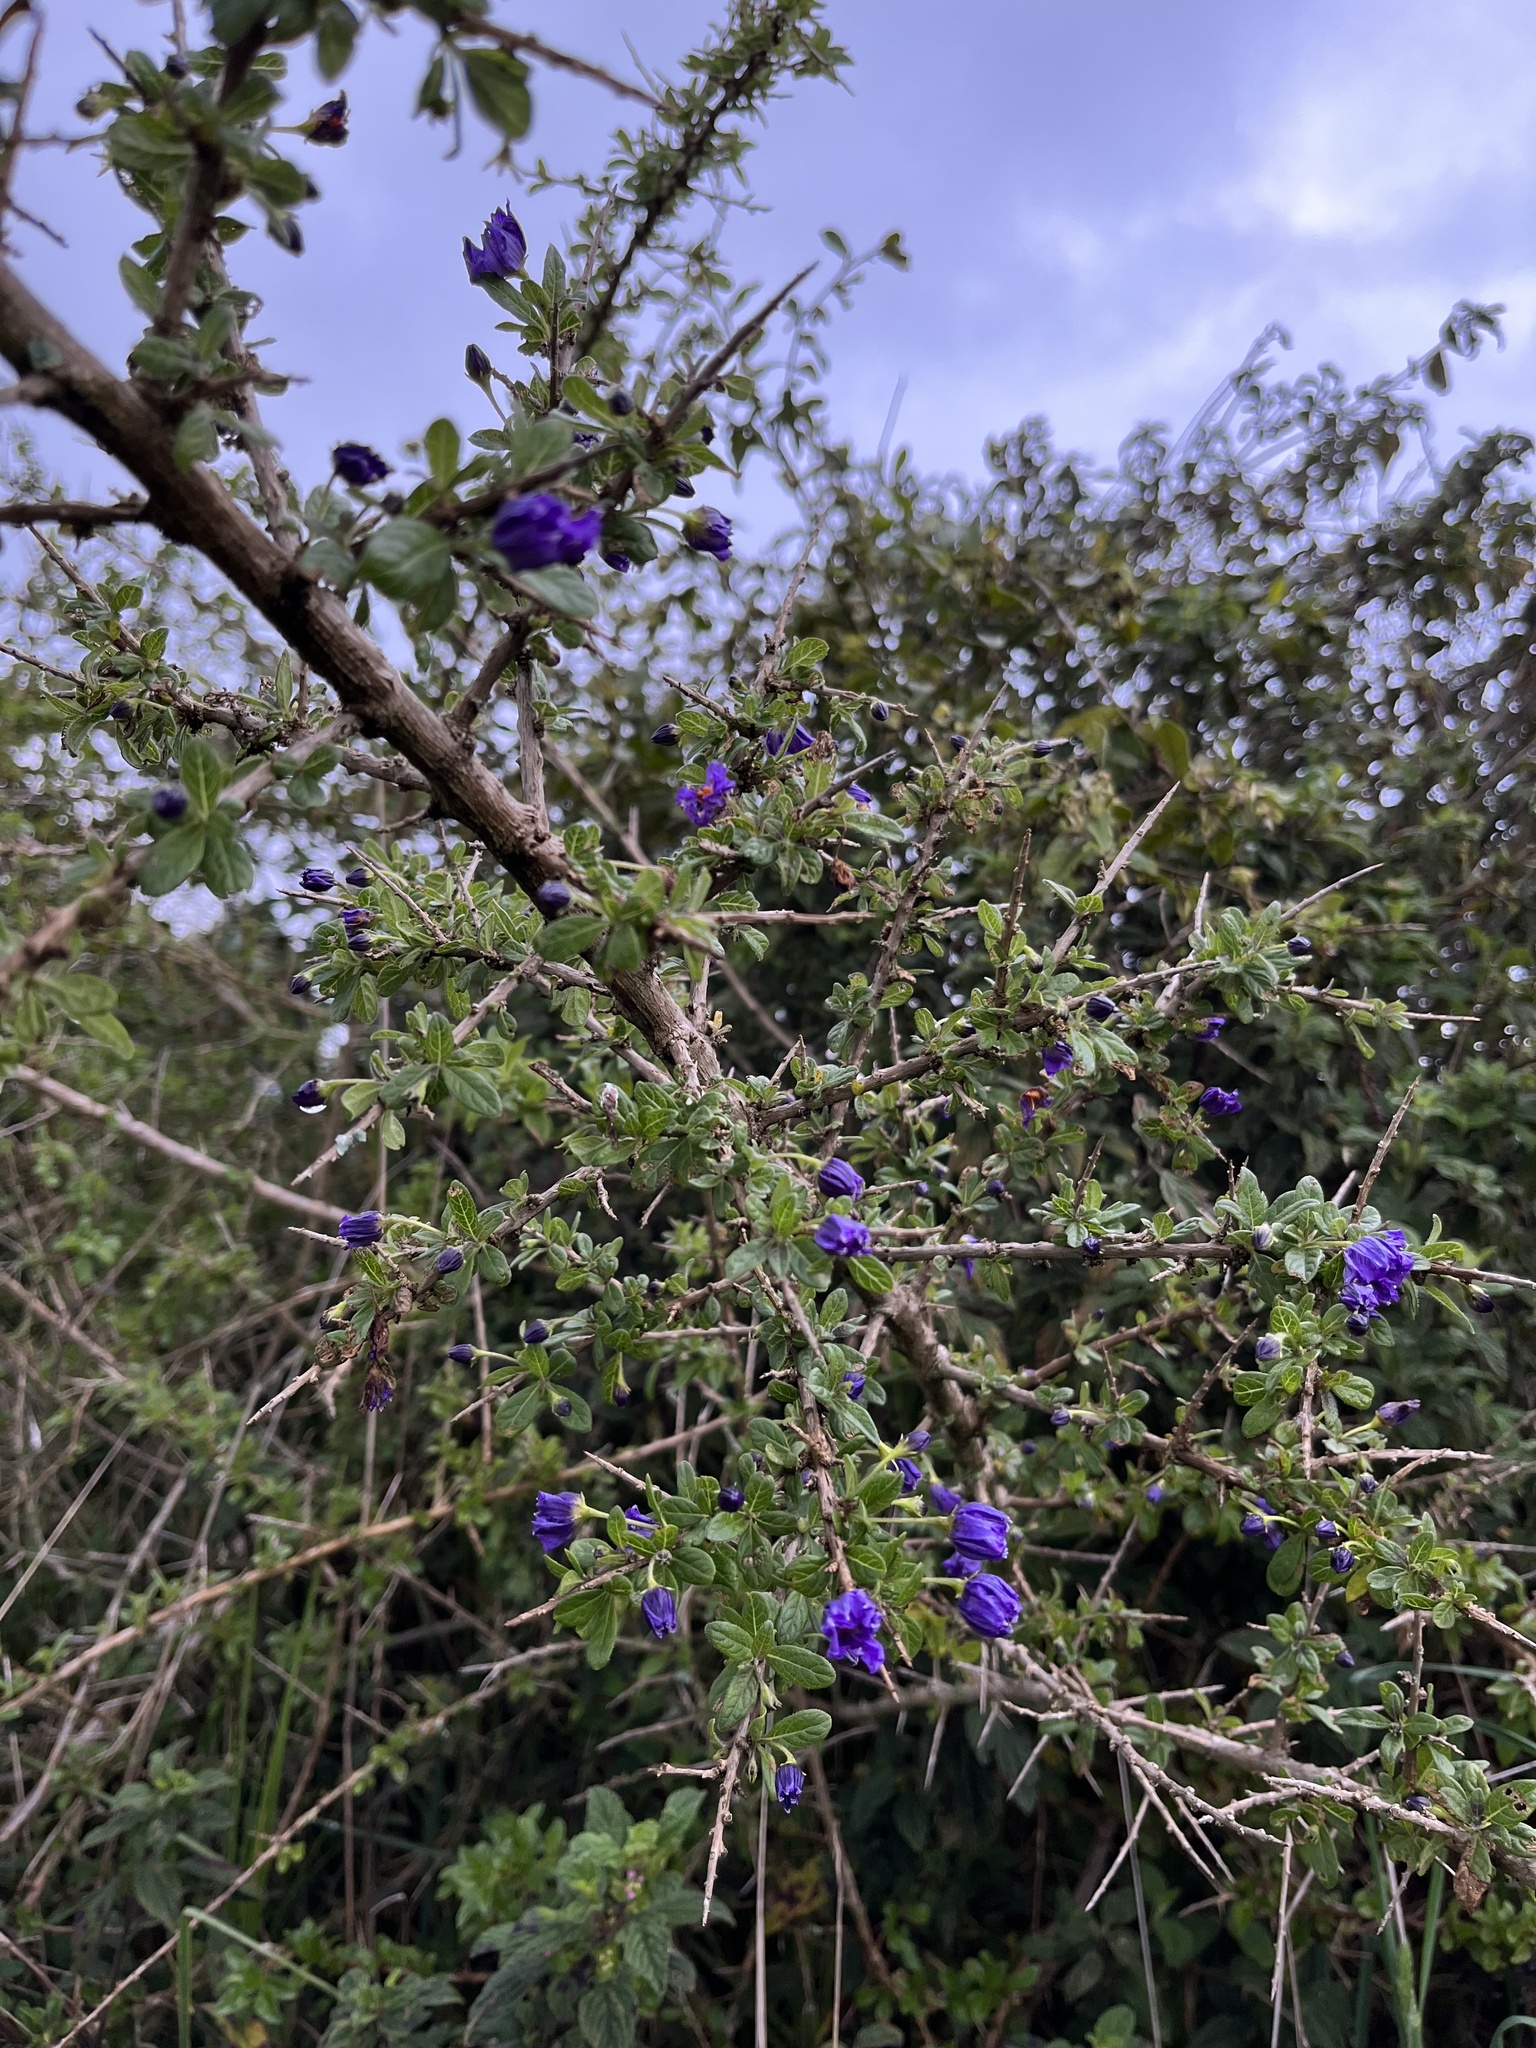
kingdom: Plantae
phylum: Tracheophyta
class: Magnoliopsida
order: Solanales
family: Solanaceae
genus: Lycianthes
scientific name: Lycianthes lycioides
